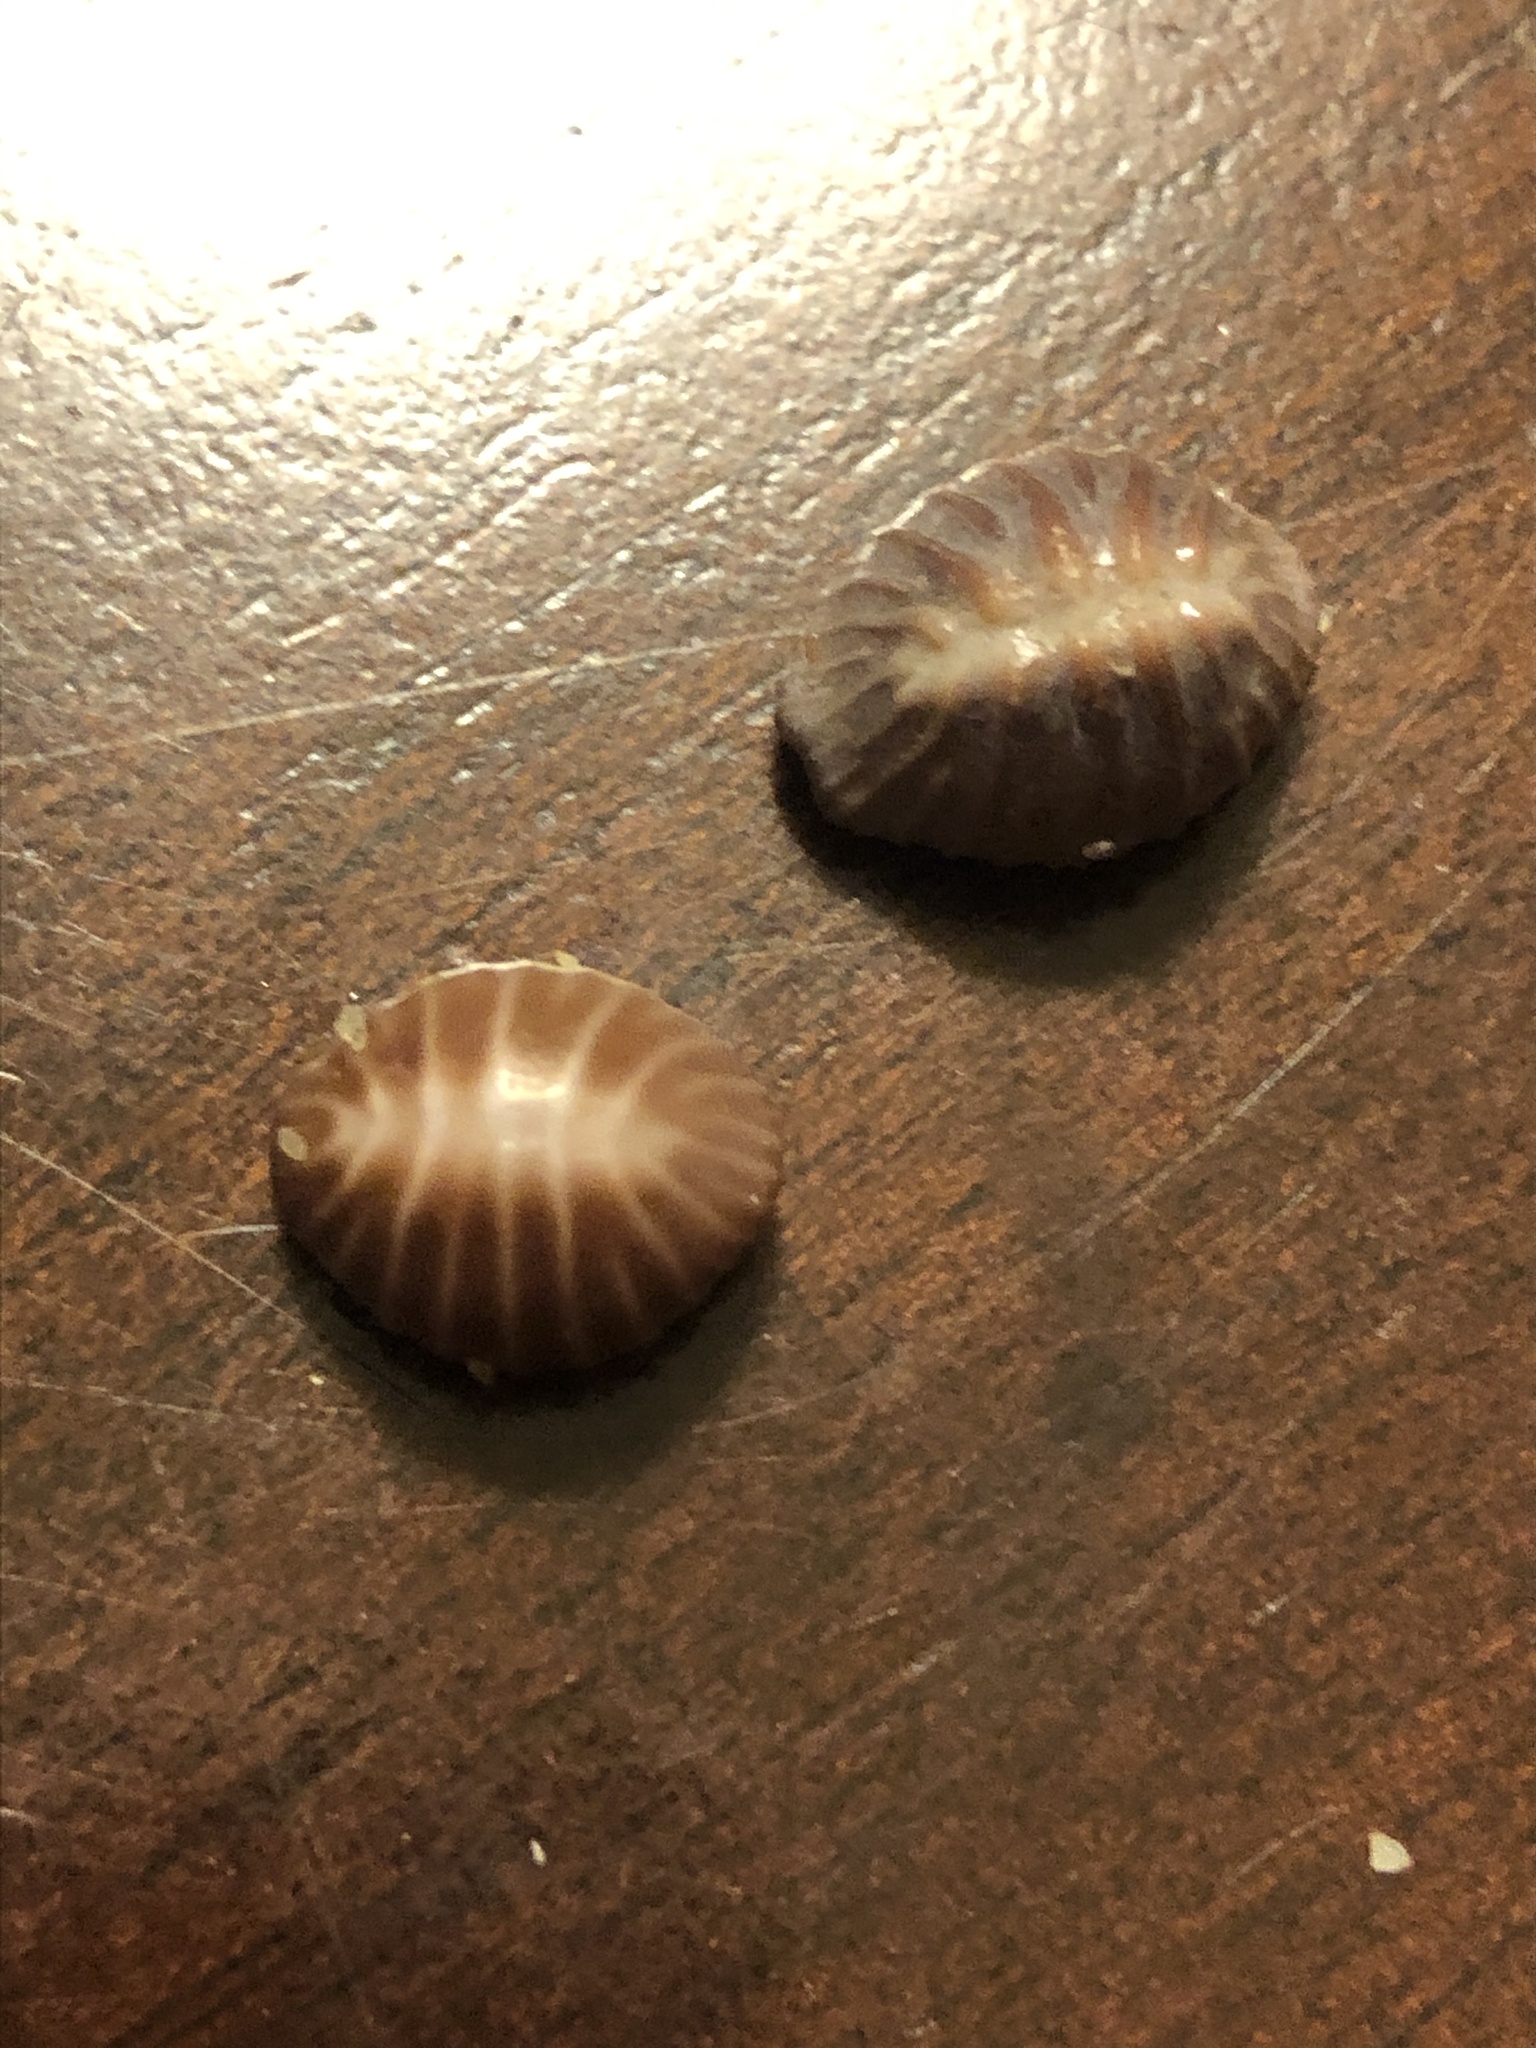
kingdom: Animalia
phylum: Mollusca
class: Gastropoda
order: Littorinimorpha
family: Triviidae
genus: Pseudopusula
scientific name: Pseudopusula californiana
